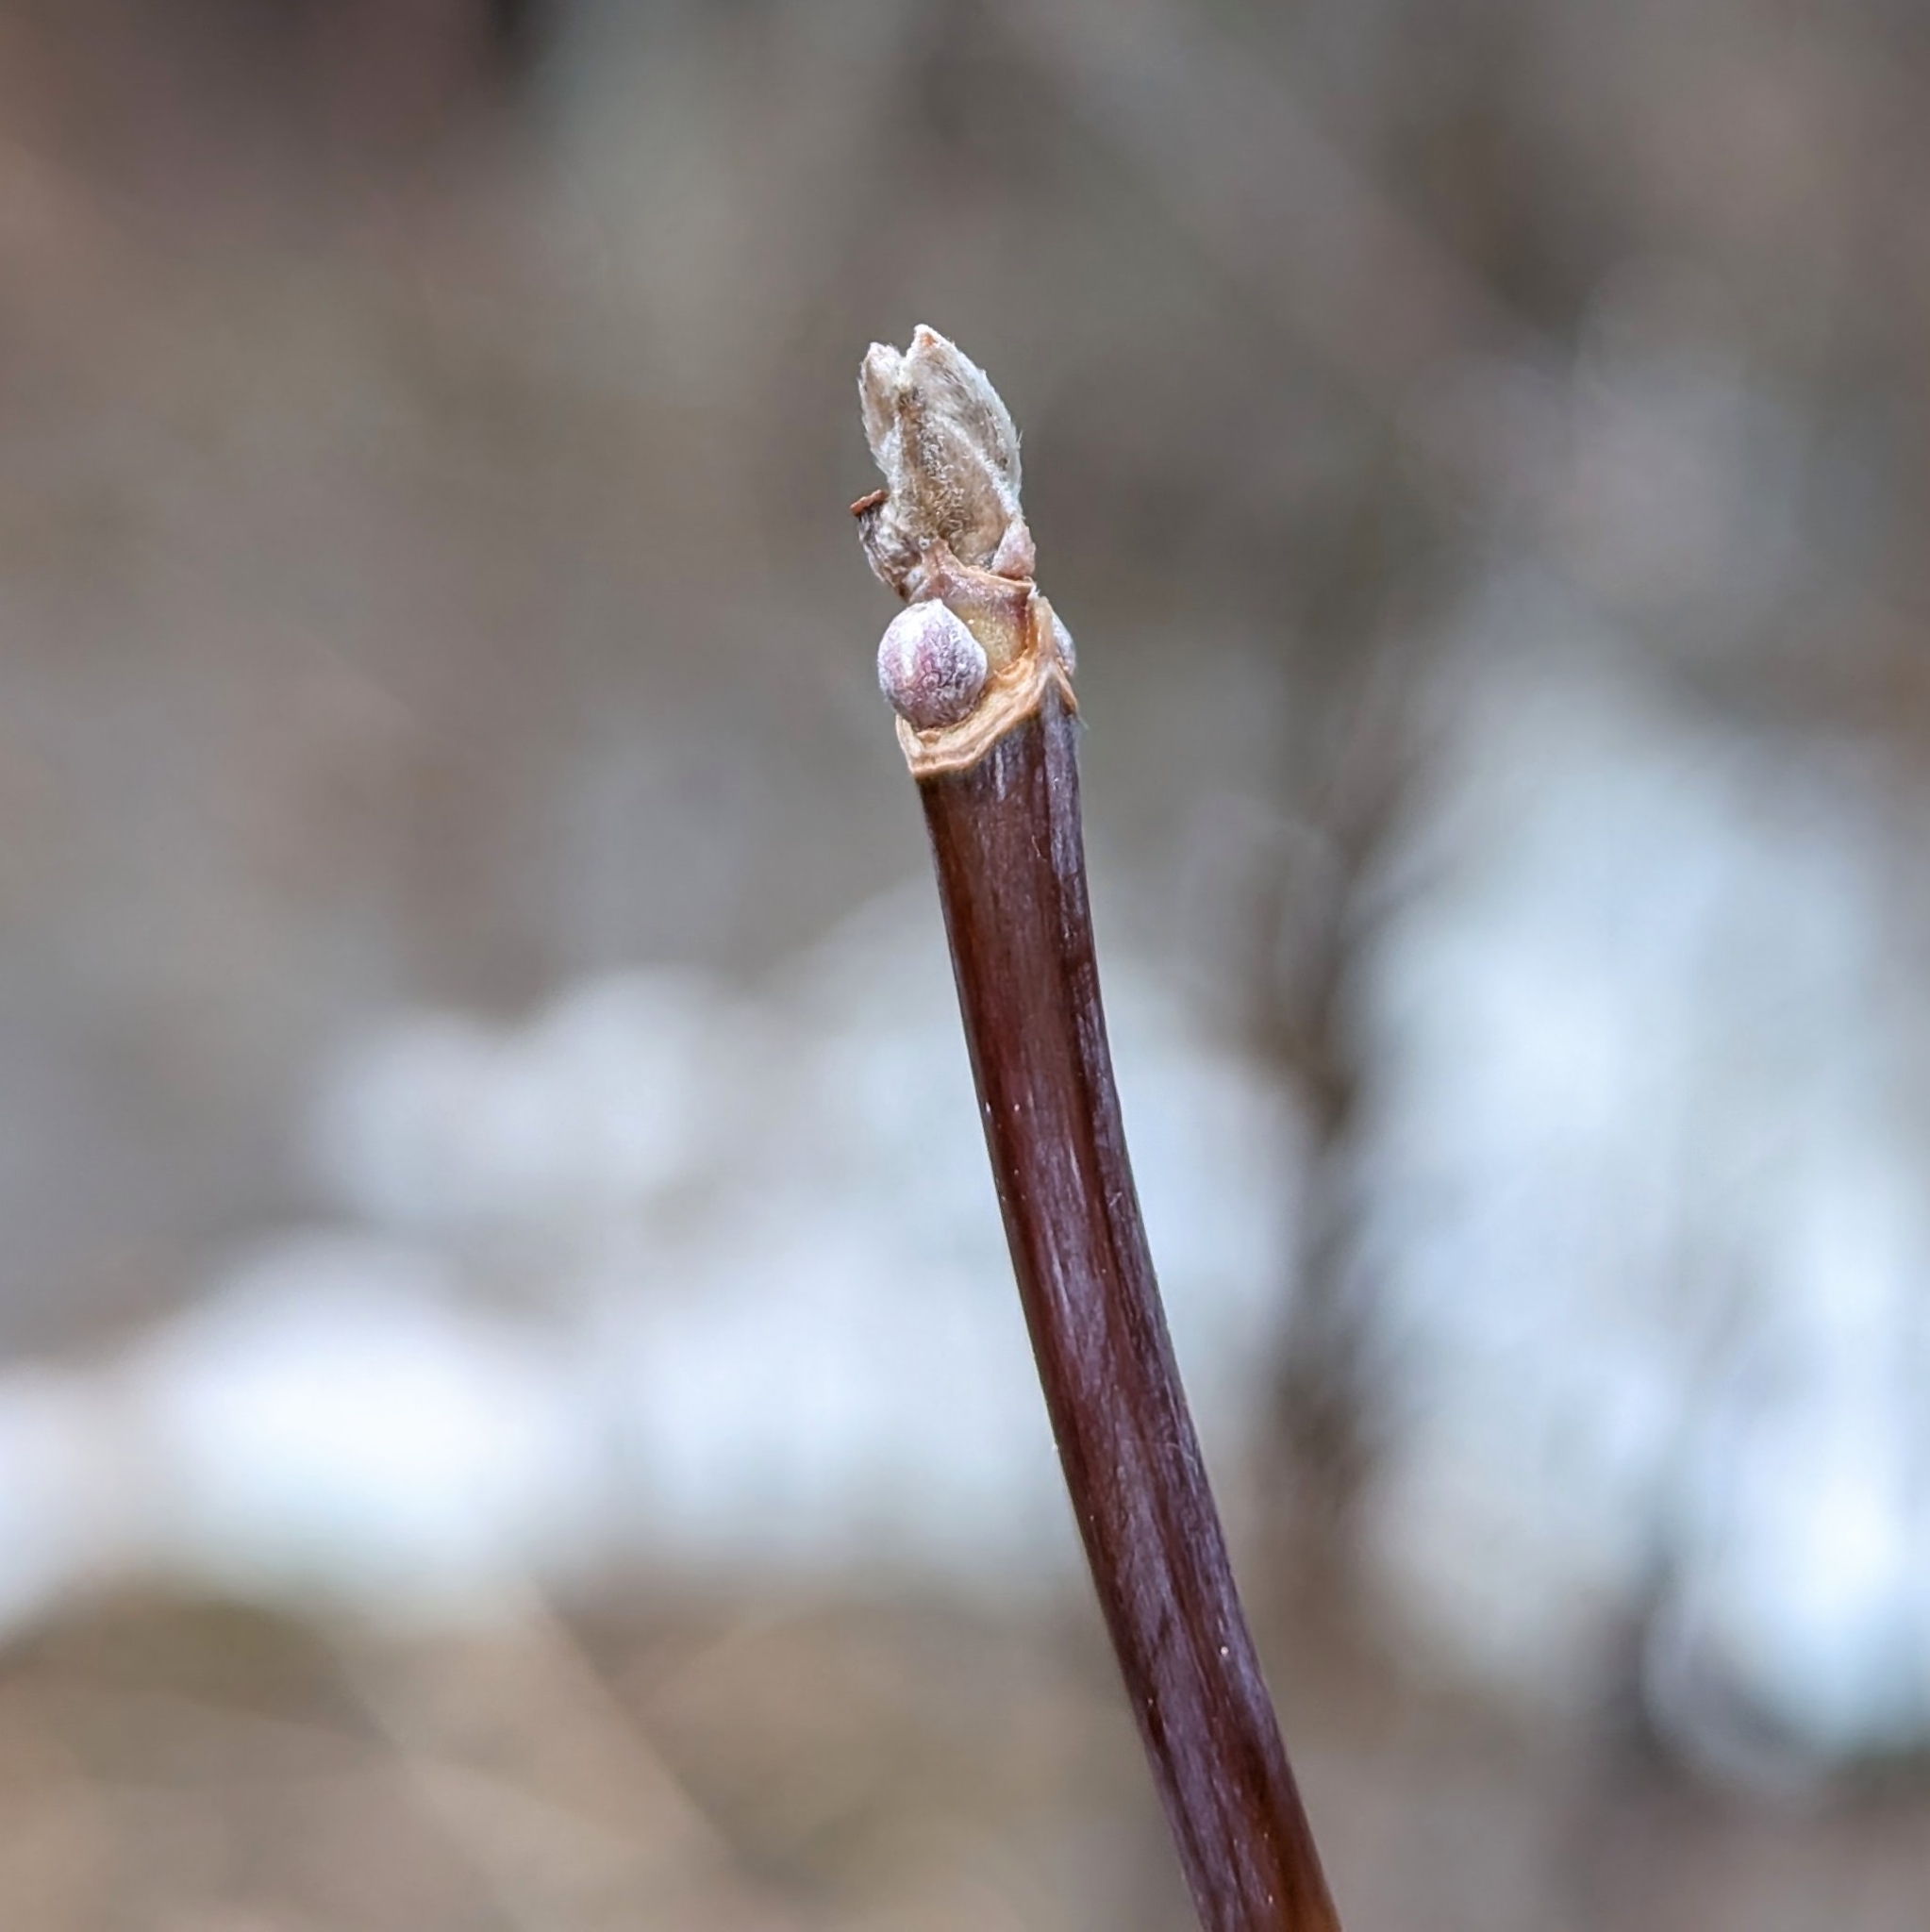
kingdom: Plantae
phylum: Tracheophyta
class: Magnoliopsida
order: Sapindales
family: Sapindaceae
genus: Acer
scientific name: Acer negundo
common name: Ashleaf maple
